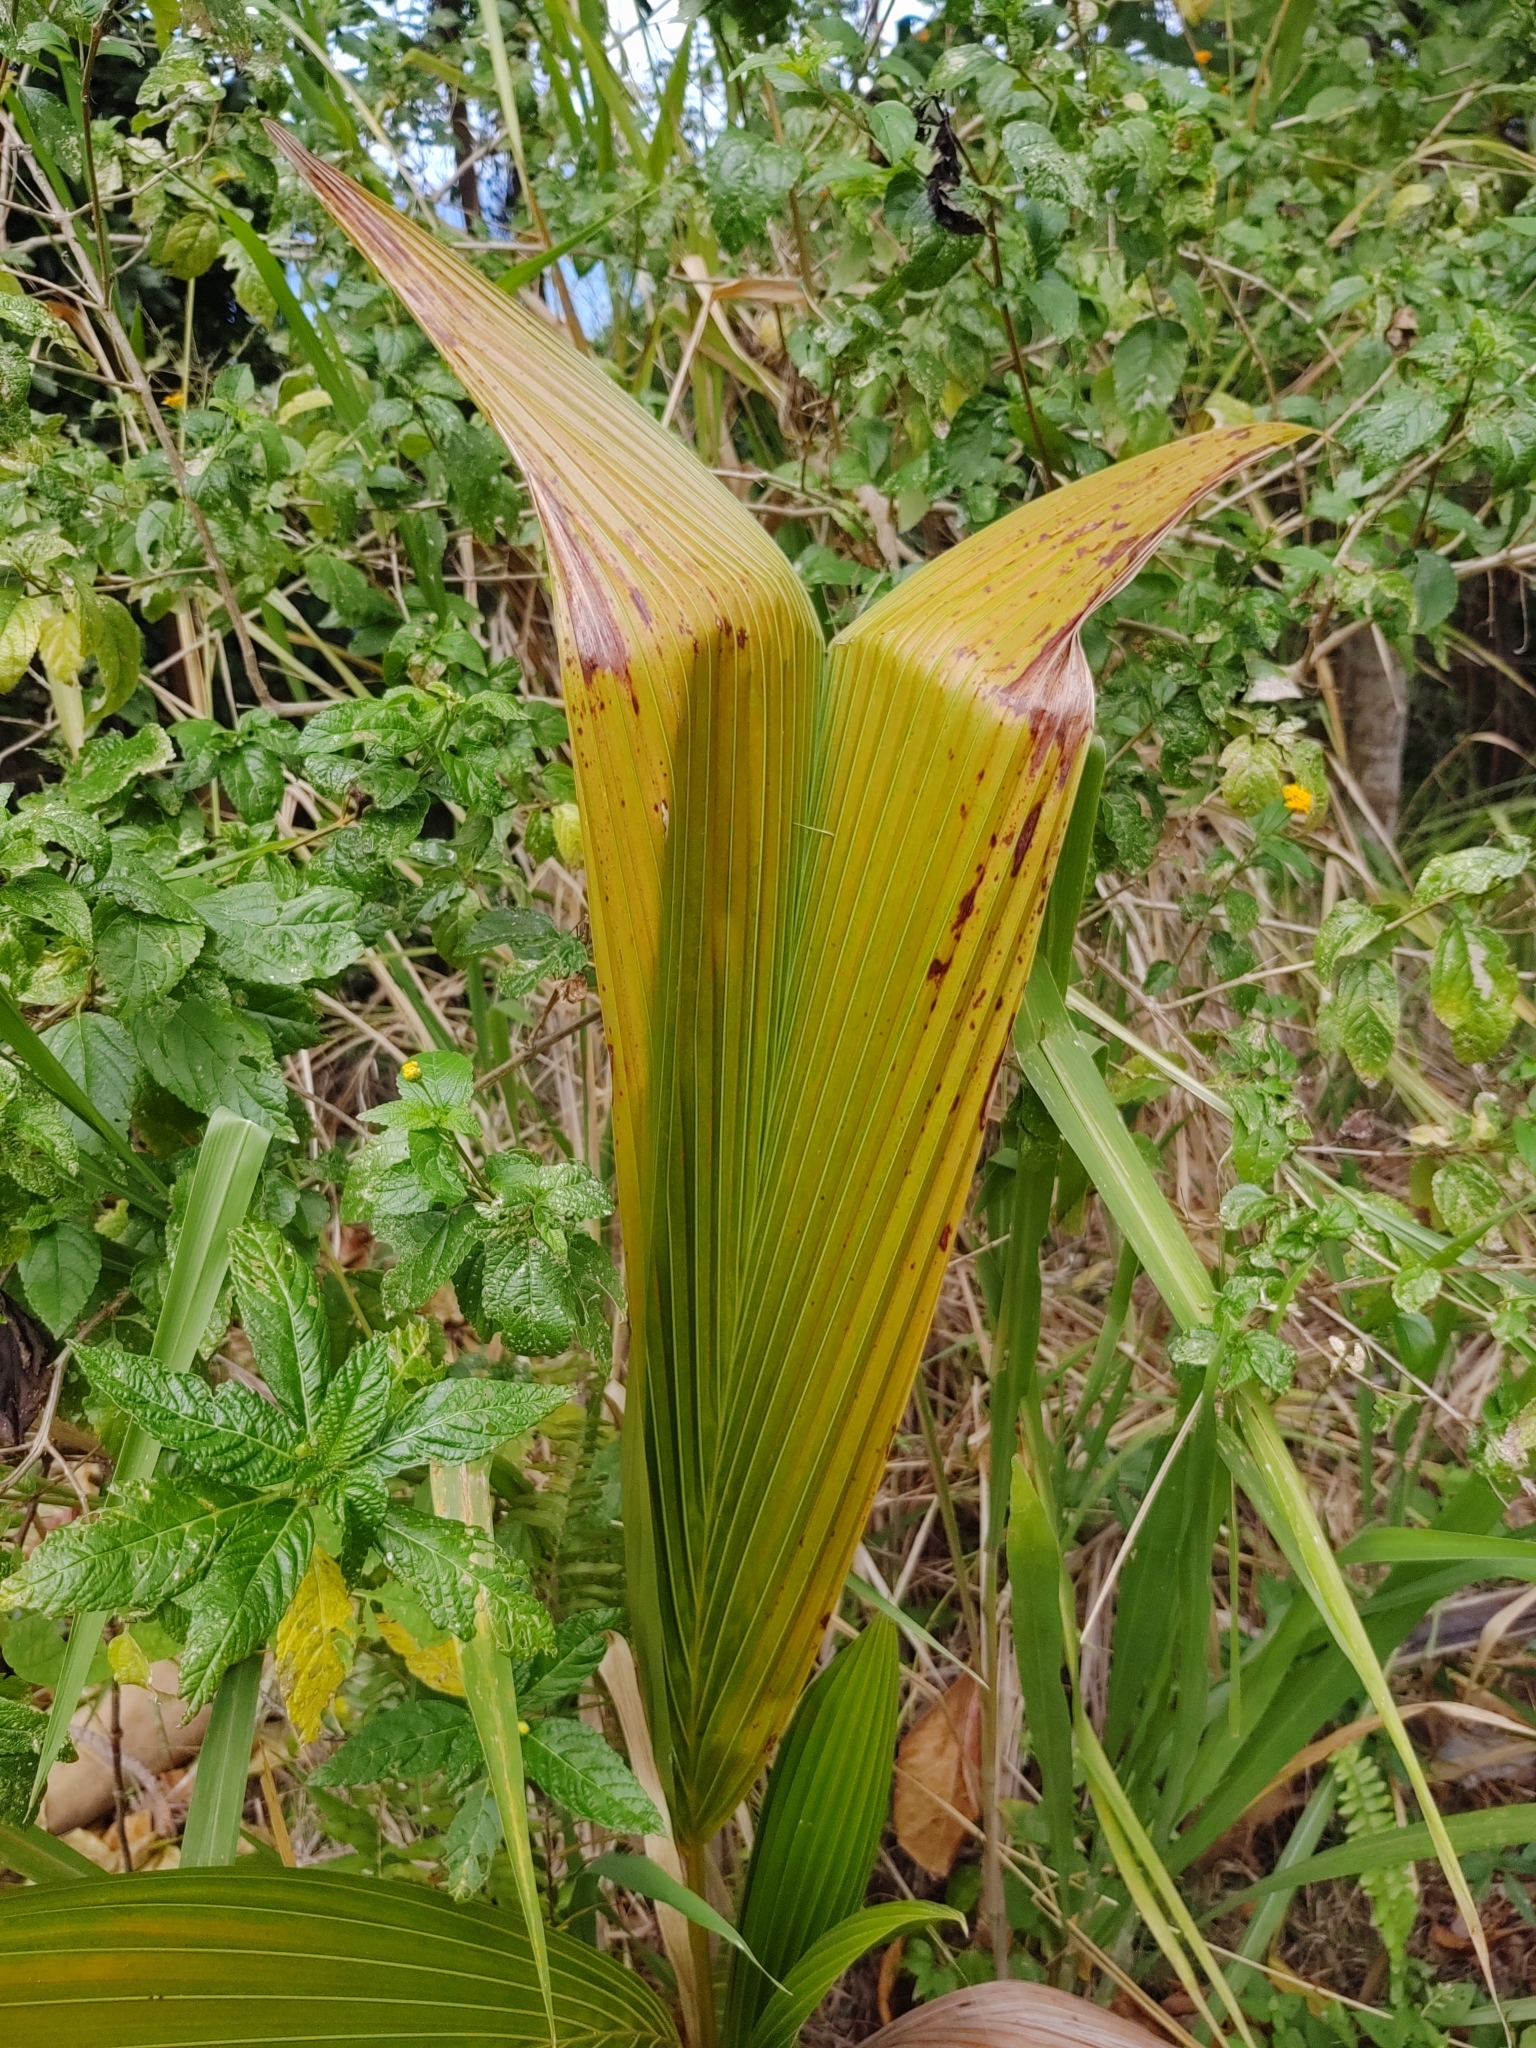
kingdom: Plantae
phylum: Tracheophyta
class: Liliopsida
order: Arecales
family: Arecaceae
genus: Cocos
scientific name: Cocos nucifera
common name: Coconut palm
